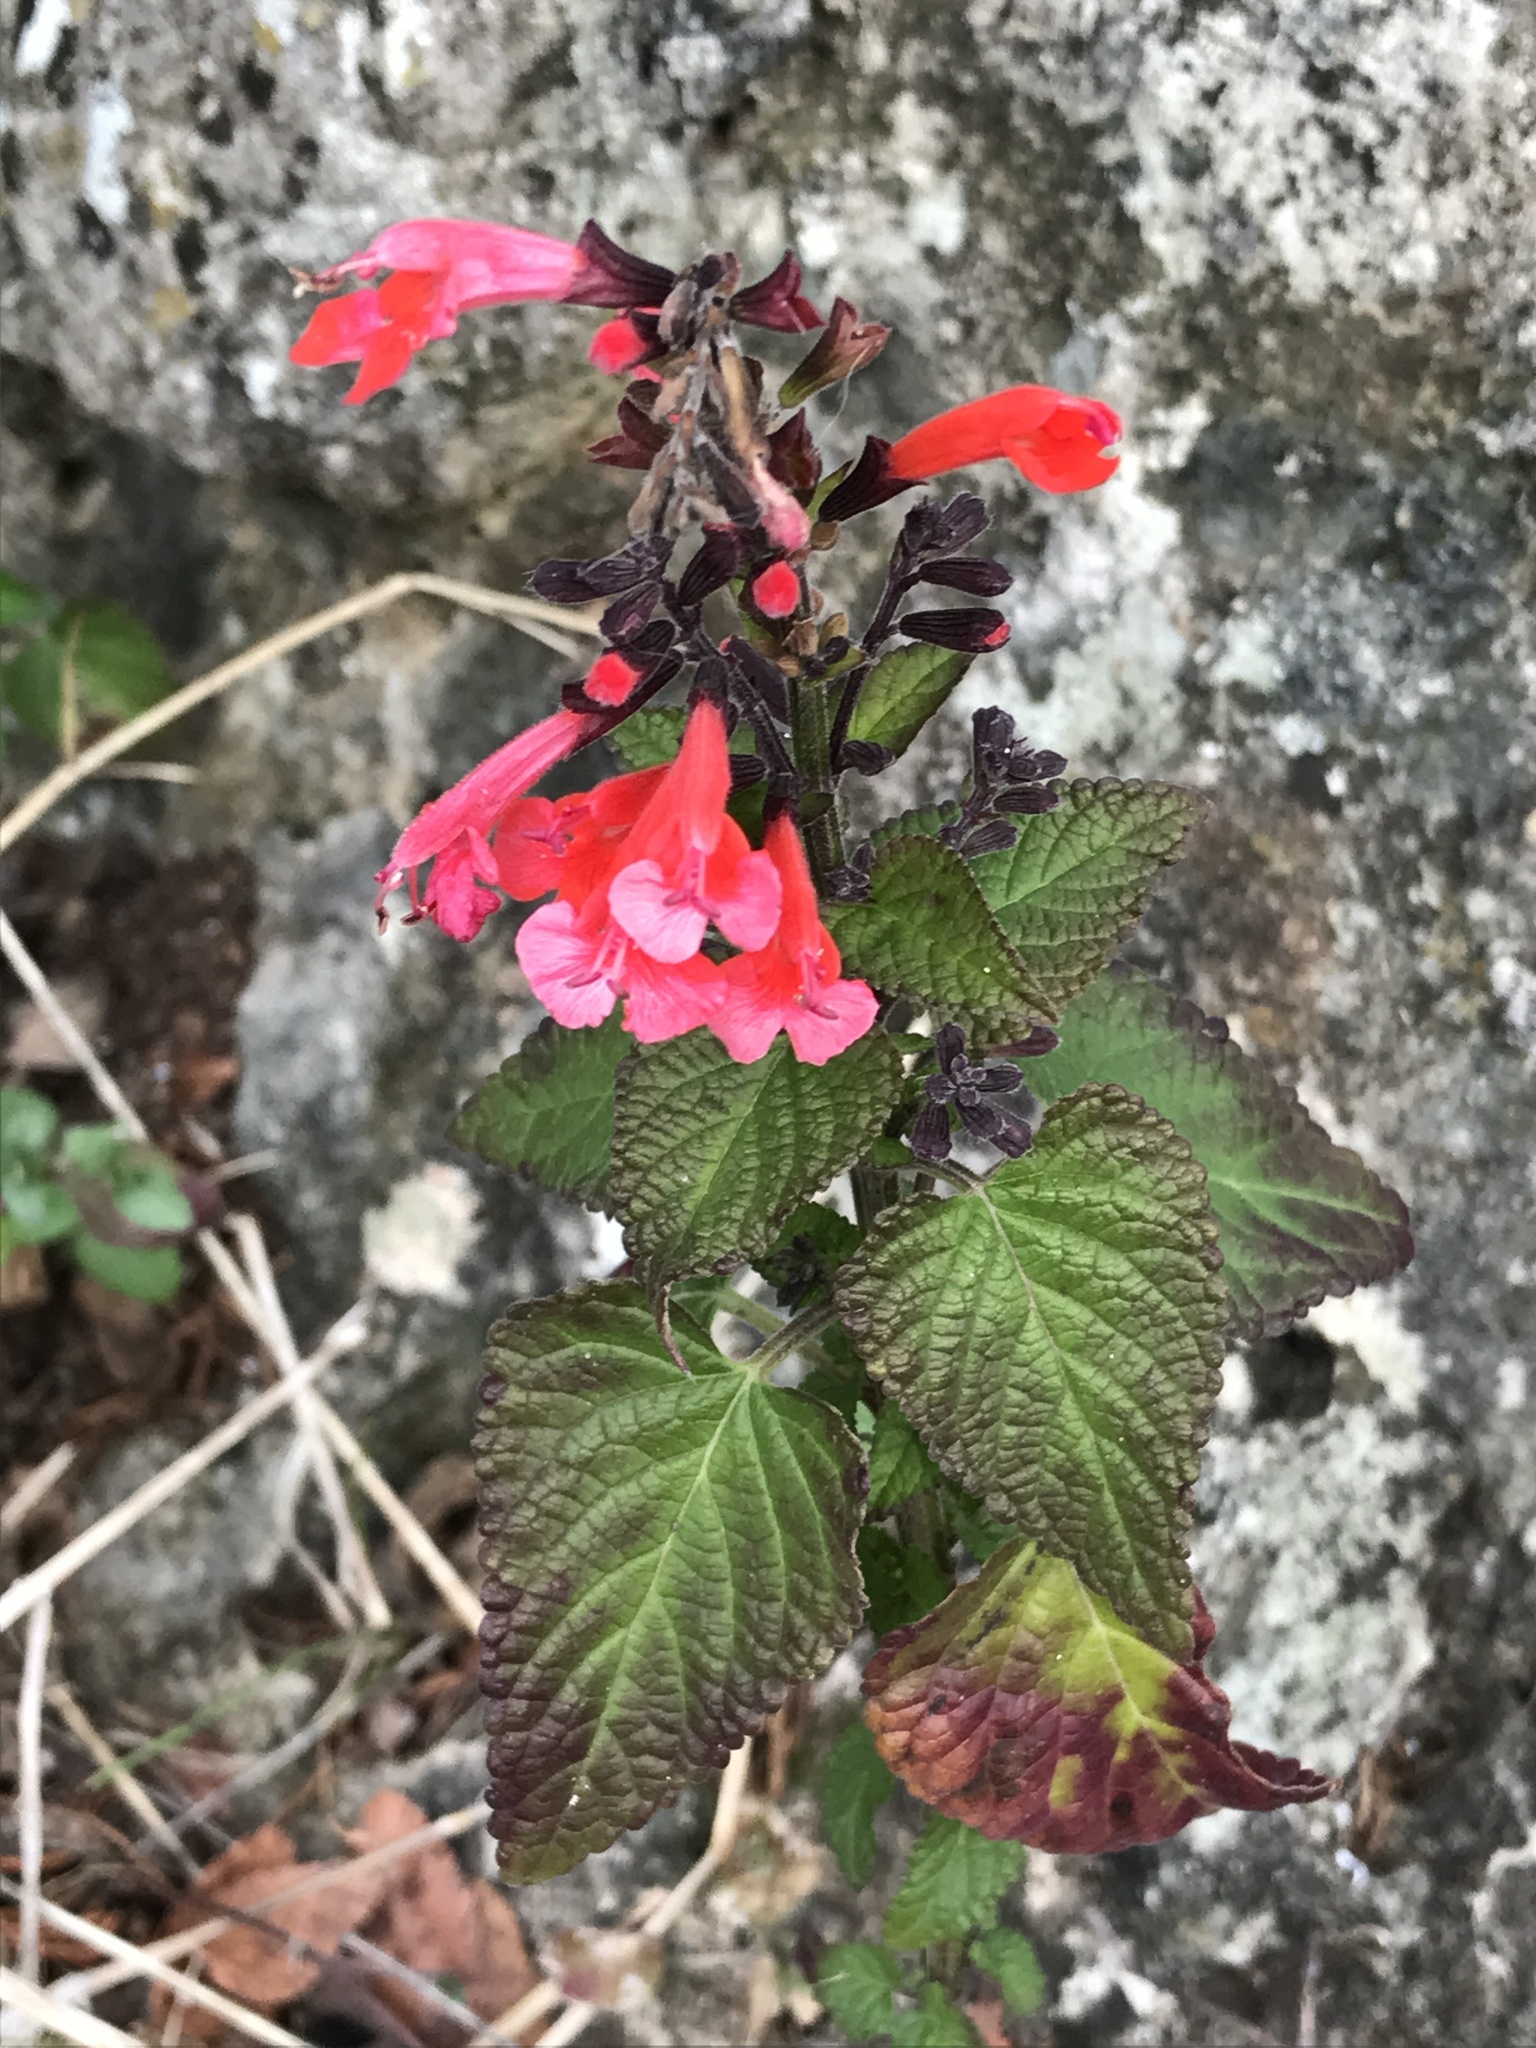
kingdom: Plantae
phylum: Tracheophyta
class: Magnoliopsida
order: Lamiales
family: Lamiaceae
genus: Salvia
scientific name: Salvia coccinea
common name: Blood sage
